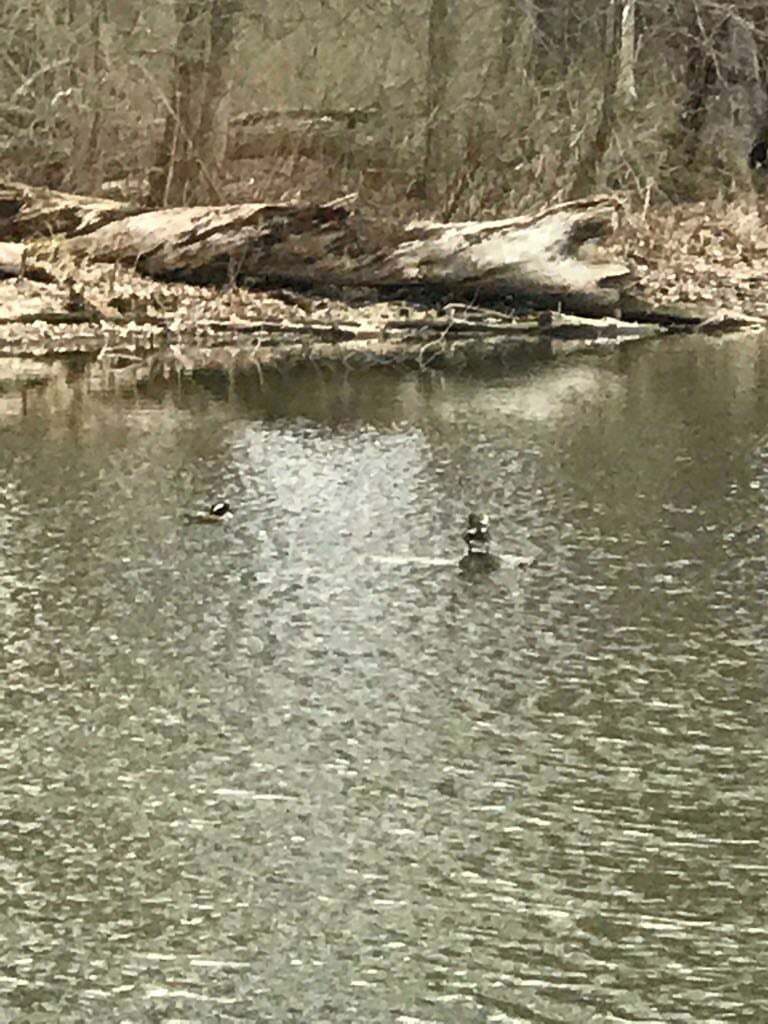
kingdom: Animalia
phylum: Chordata
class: Aves
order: Anseriformes
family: Anatidae
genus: Lophodytes
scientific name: Lophodytes cucullatus
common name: Hooded merganser
